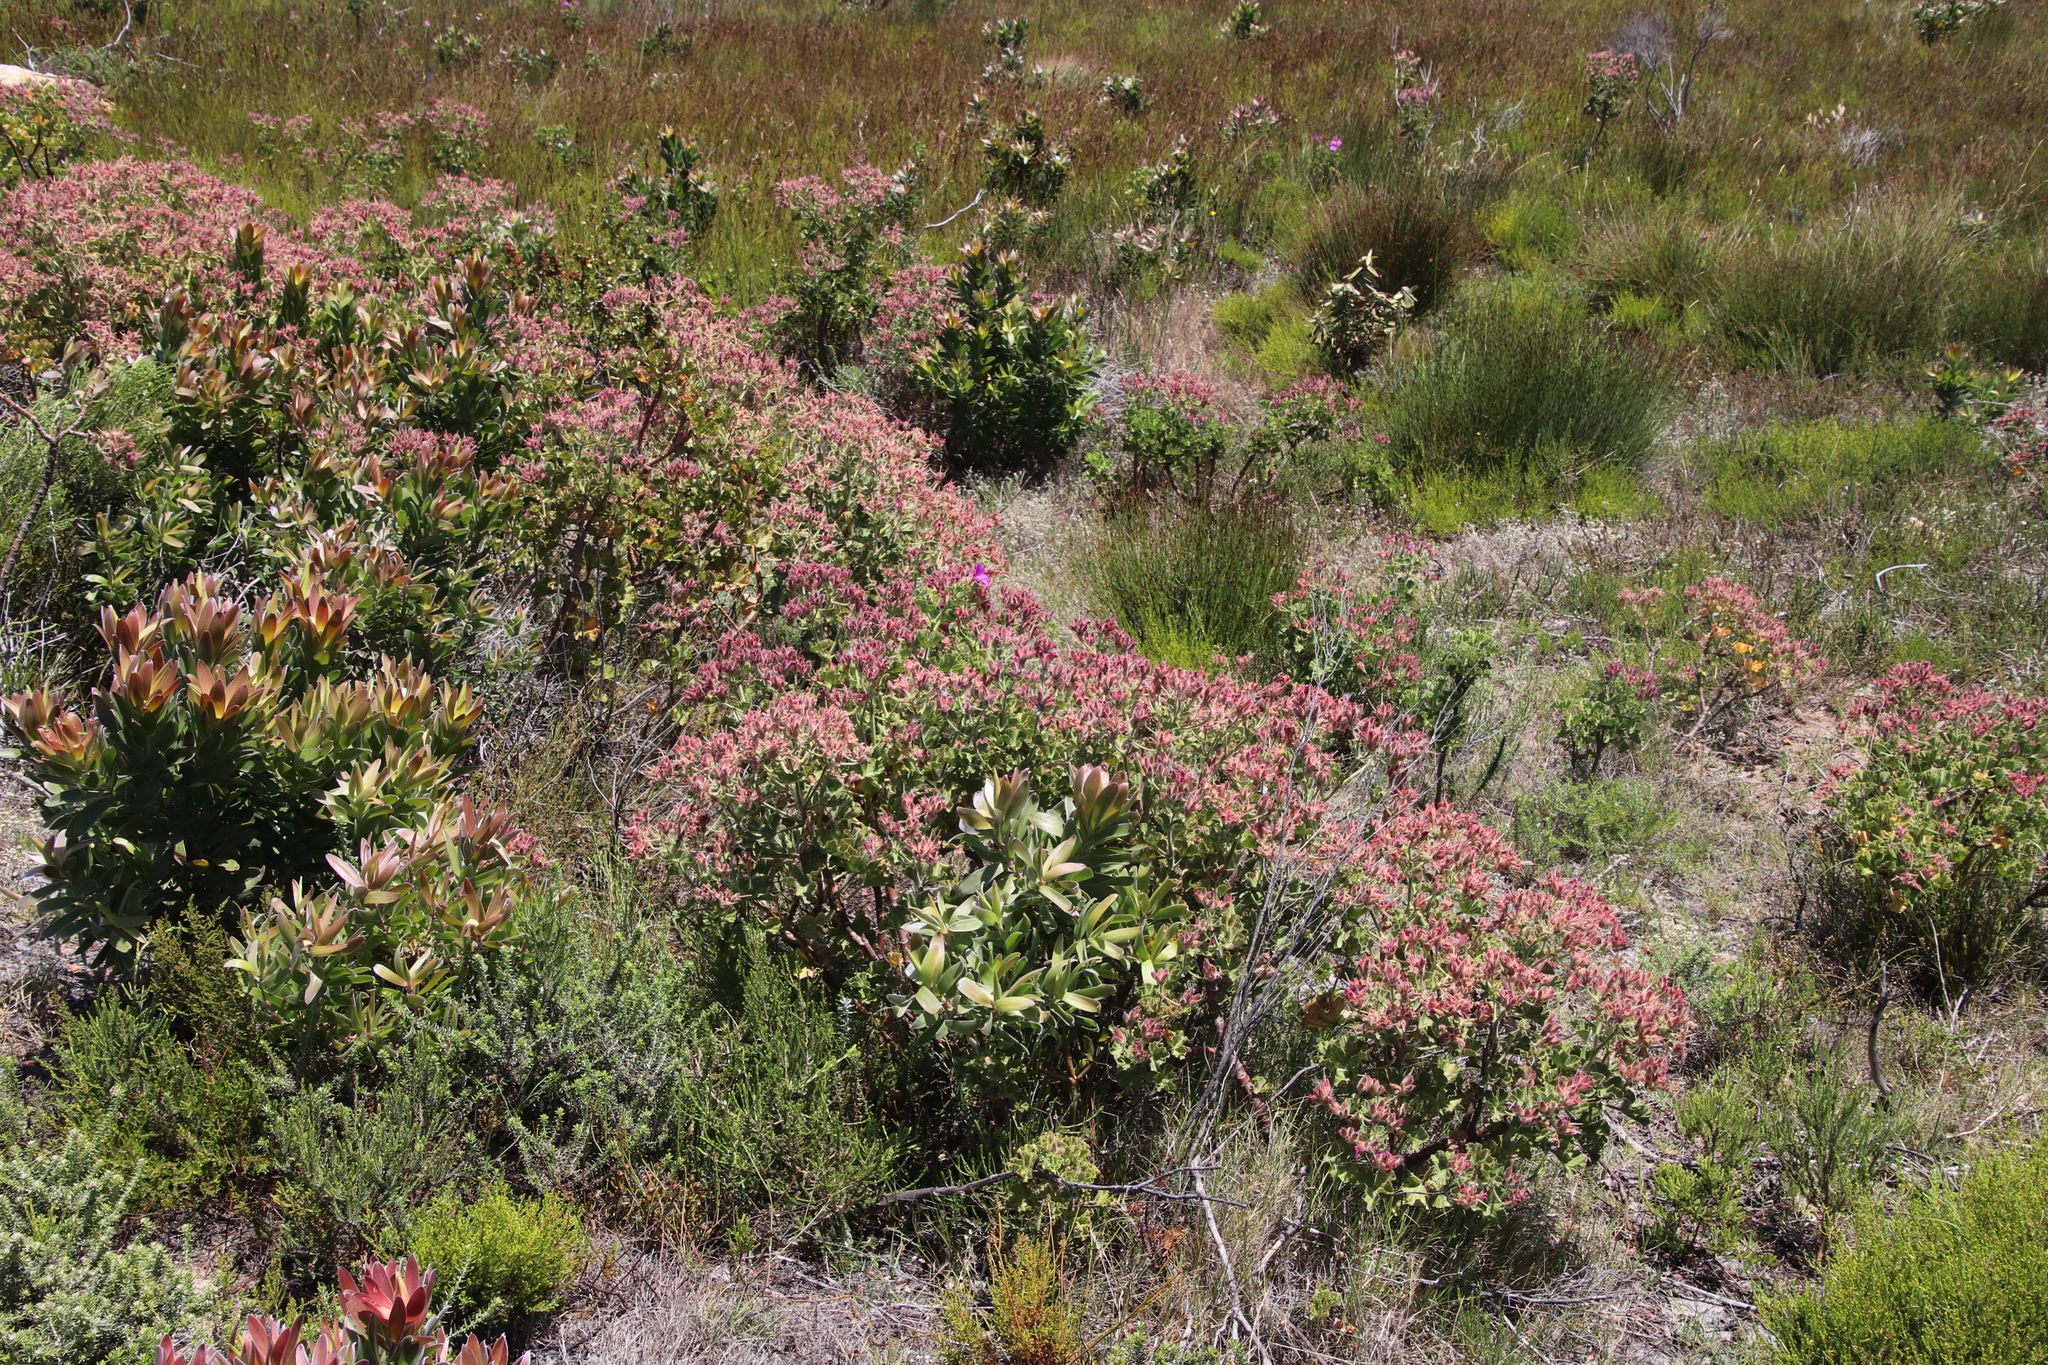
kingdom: Plantae
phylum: Tracheophyta
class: Magnoliopsida
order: Proteales
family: Proteaceae
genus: Leucadendron
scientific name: Leucadendron laureolum
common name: Golden sunshinebush
